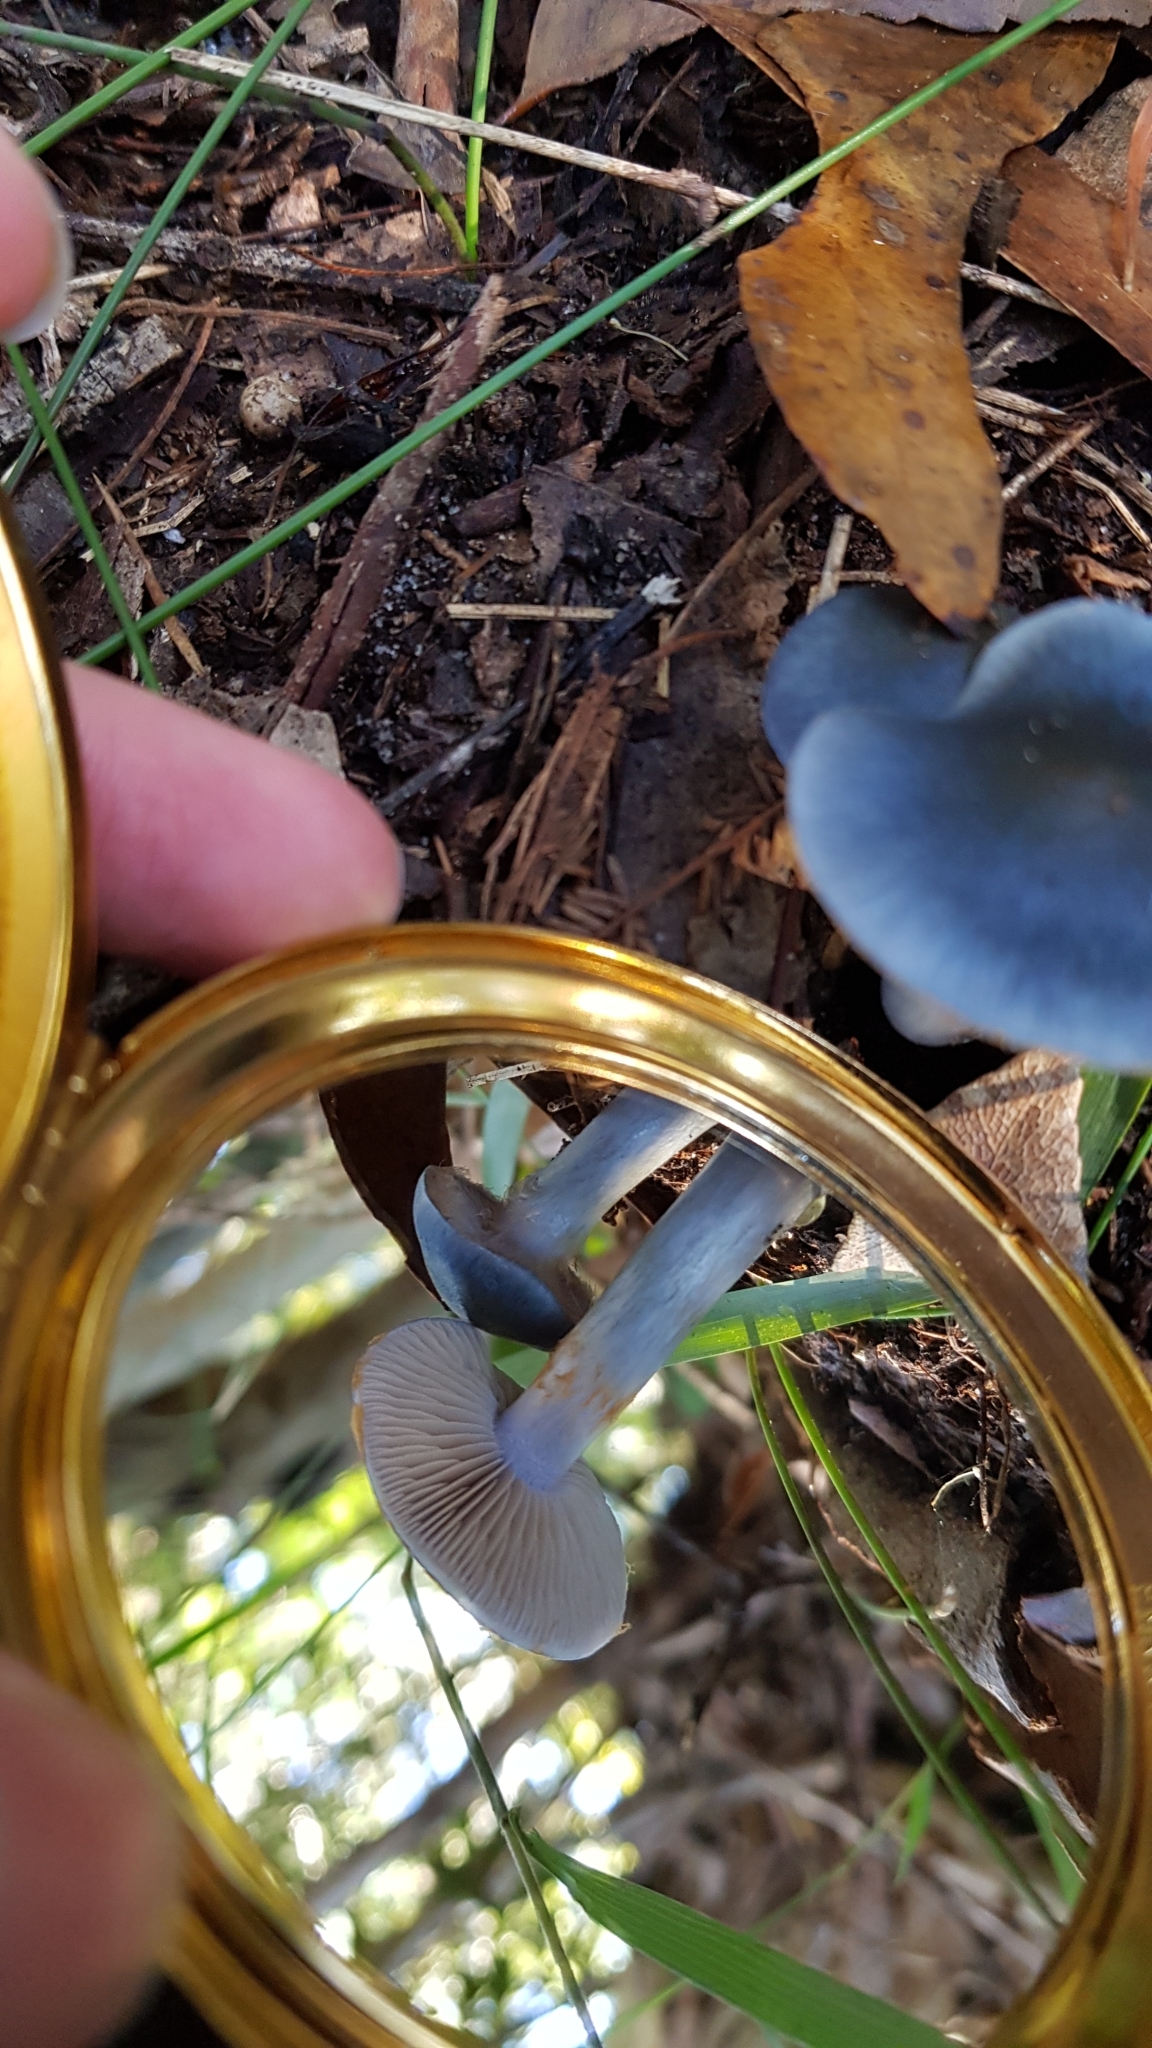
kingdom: Fungi
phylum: Basidiomycota
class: Agaricomycetes
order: Agaricales
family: Cortinariaceae
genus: Cortinarius
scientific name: Cortinarius rotundisporus
